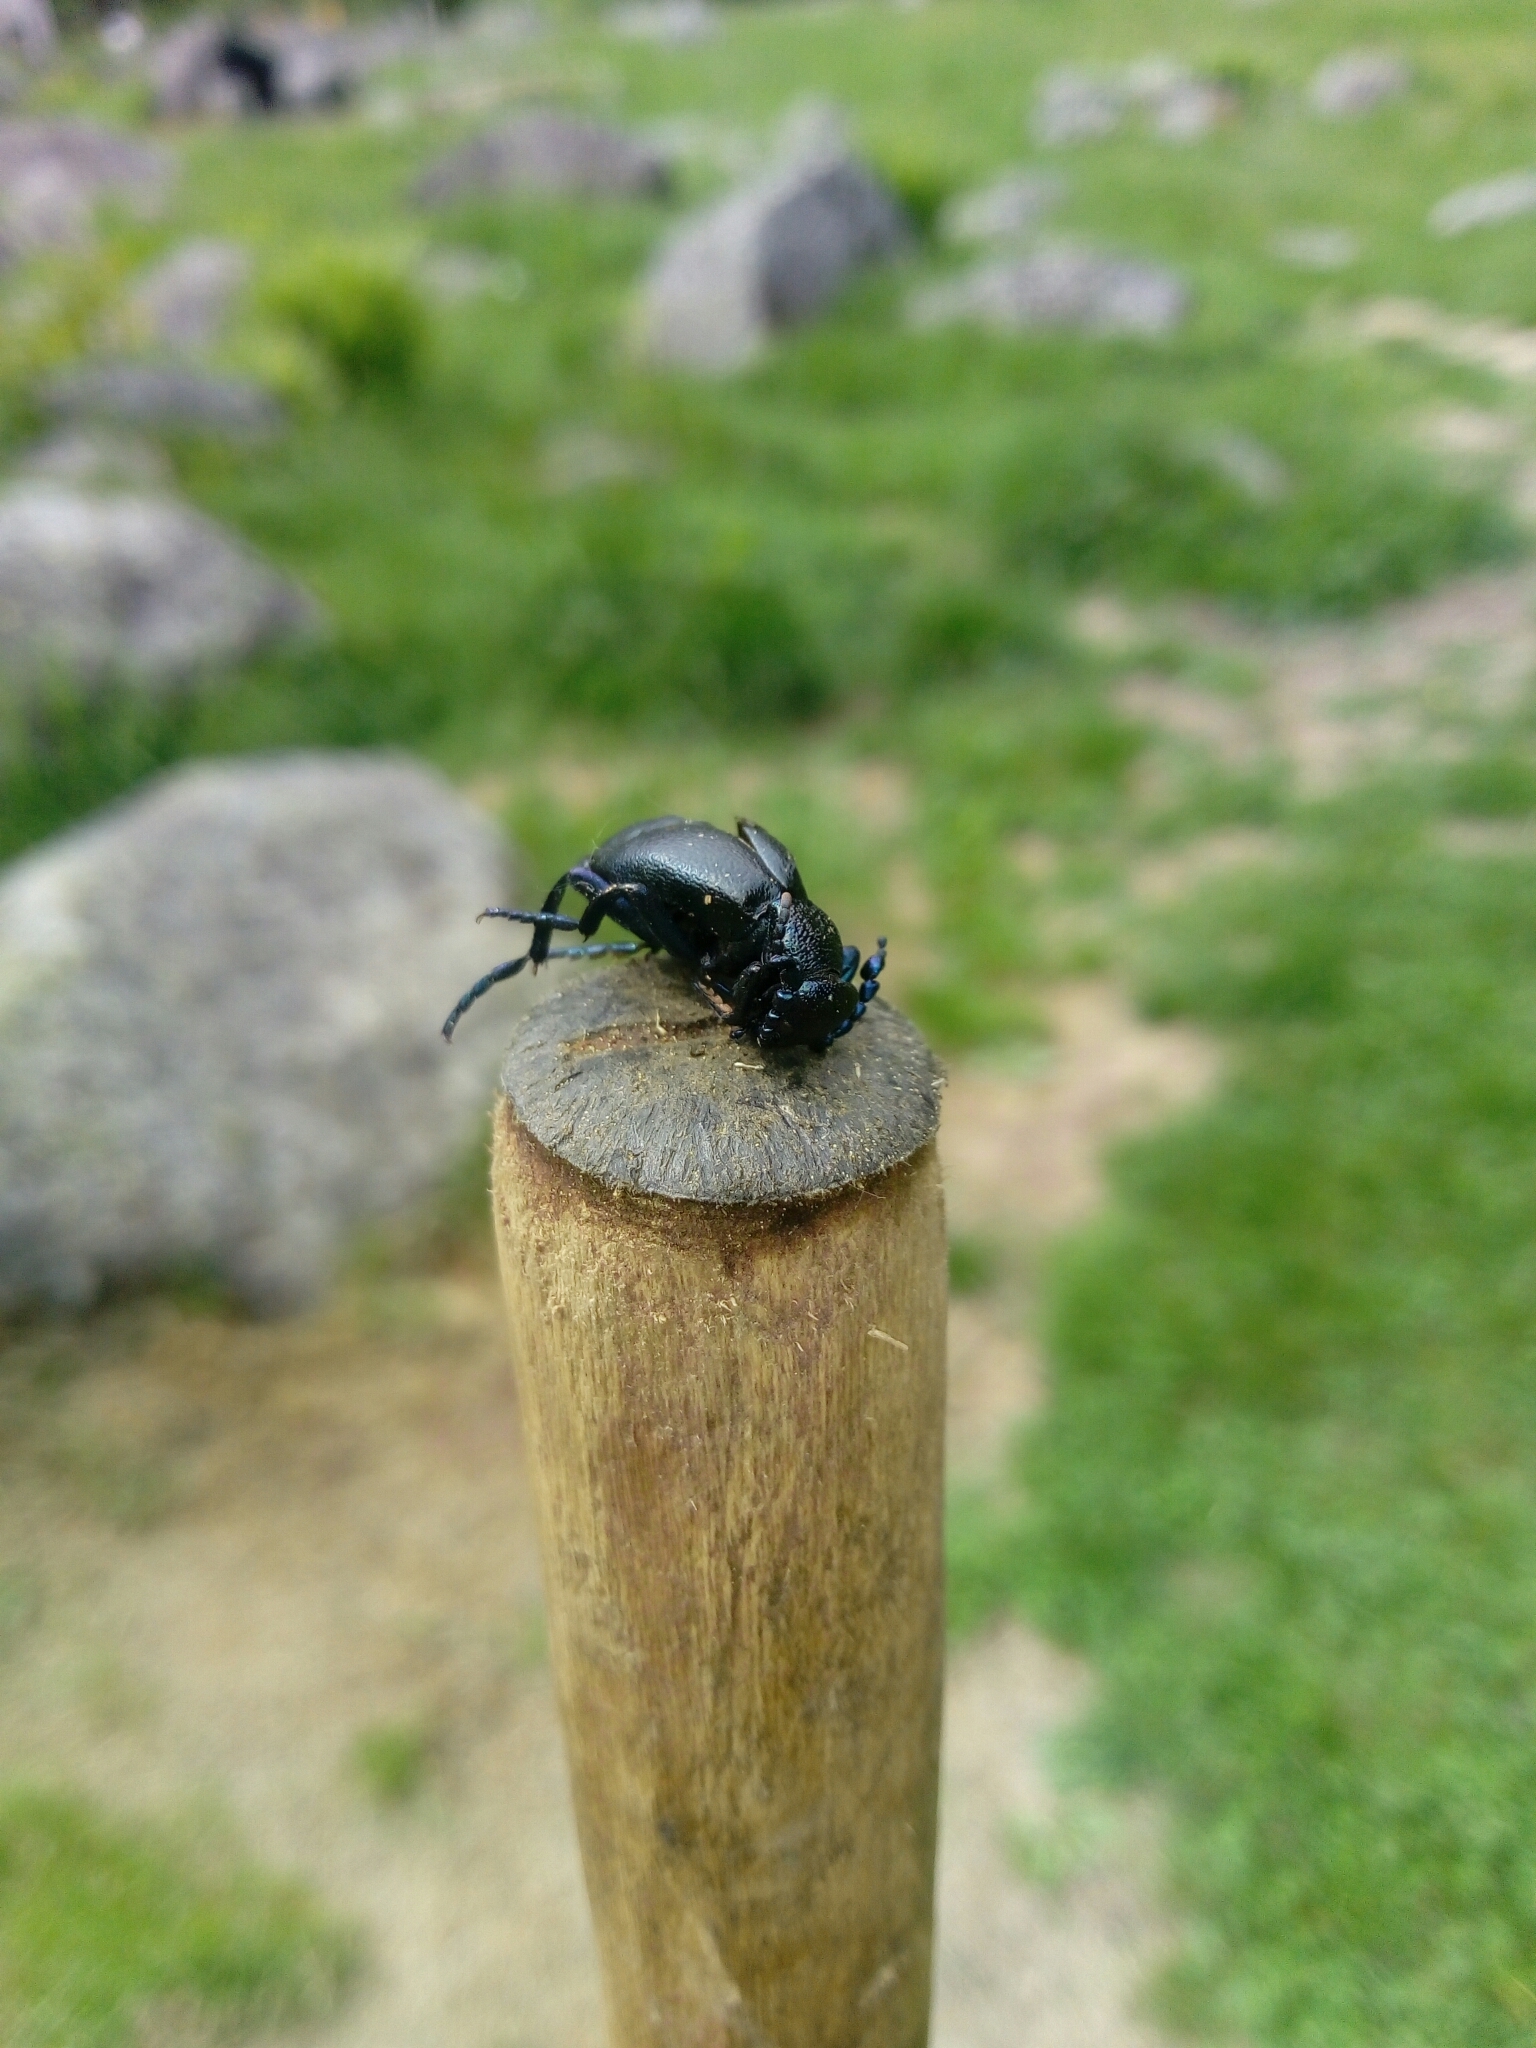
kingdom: Animalia
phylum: Arthropoda
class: Insecta
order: Coleoptera
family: Meloidae
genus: Meloe
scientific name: Meloe proscarabaeus
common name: Black oil-beetle
